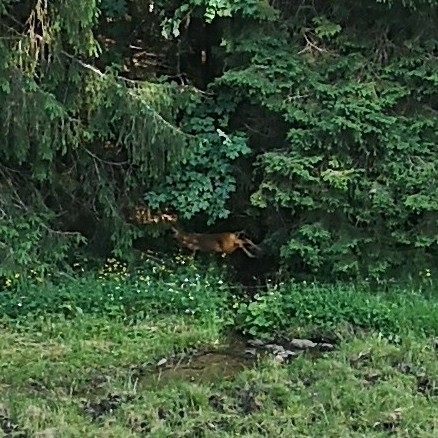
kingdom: Animalia
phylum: Chordata
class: Mammalia
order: Artiodactyla
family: Cervidae
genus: Capreolus
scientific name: Capreolus capreolus
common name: Western roe deer
